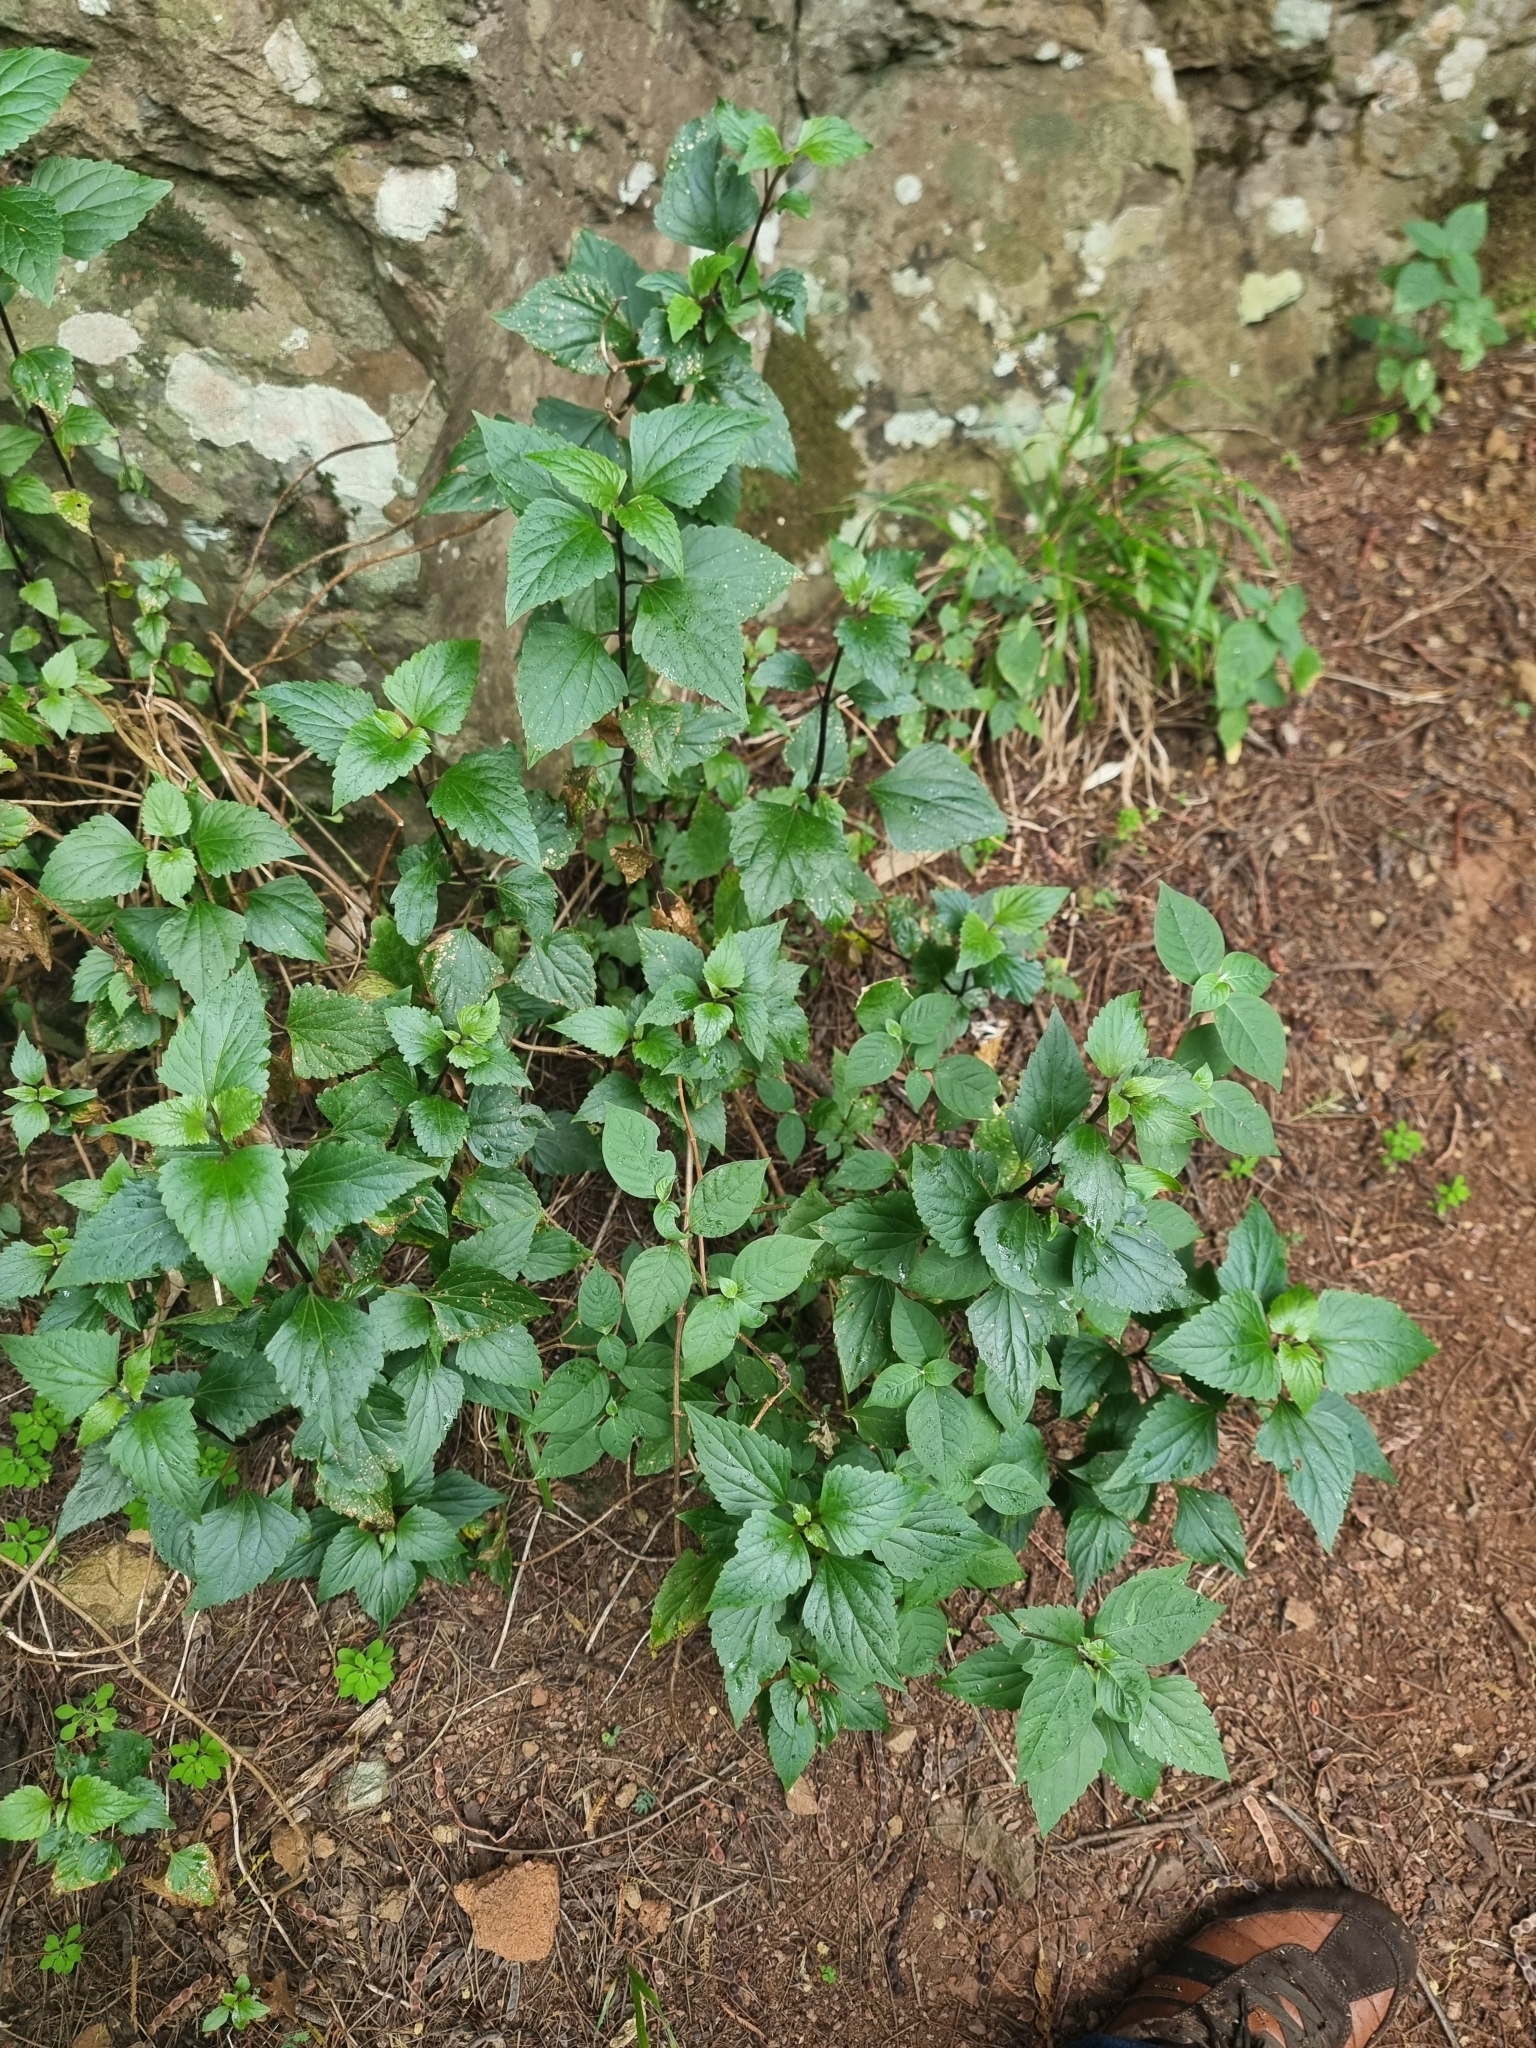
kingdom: Plantae
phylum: Tracheophyta
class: Magnoliopsida
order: Asterales
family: Asteraceae
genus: Ageratina
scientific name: Ageratina adenophora
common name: Sticky snakeroot
